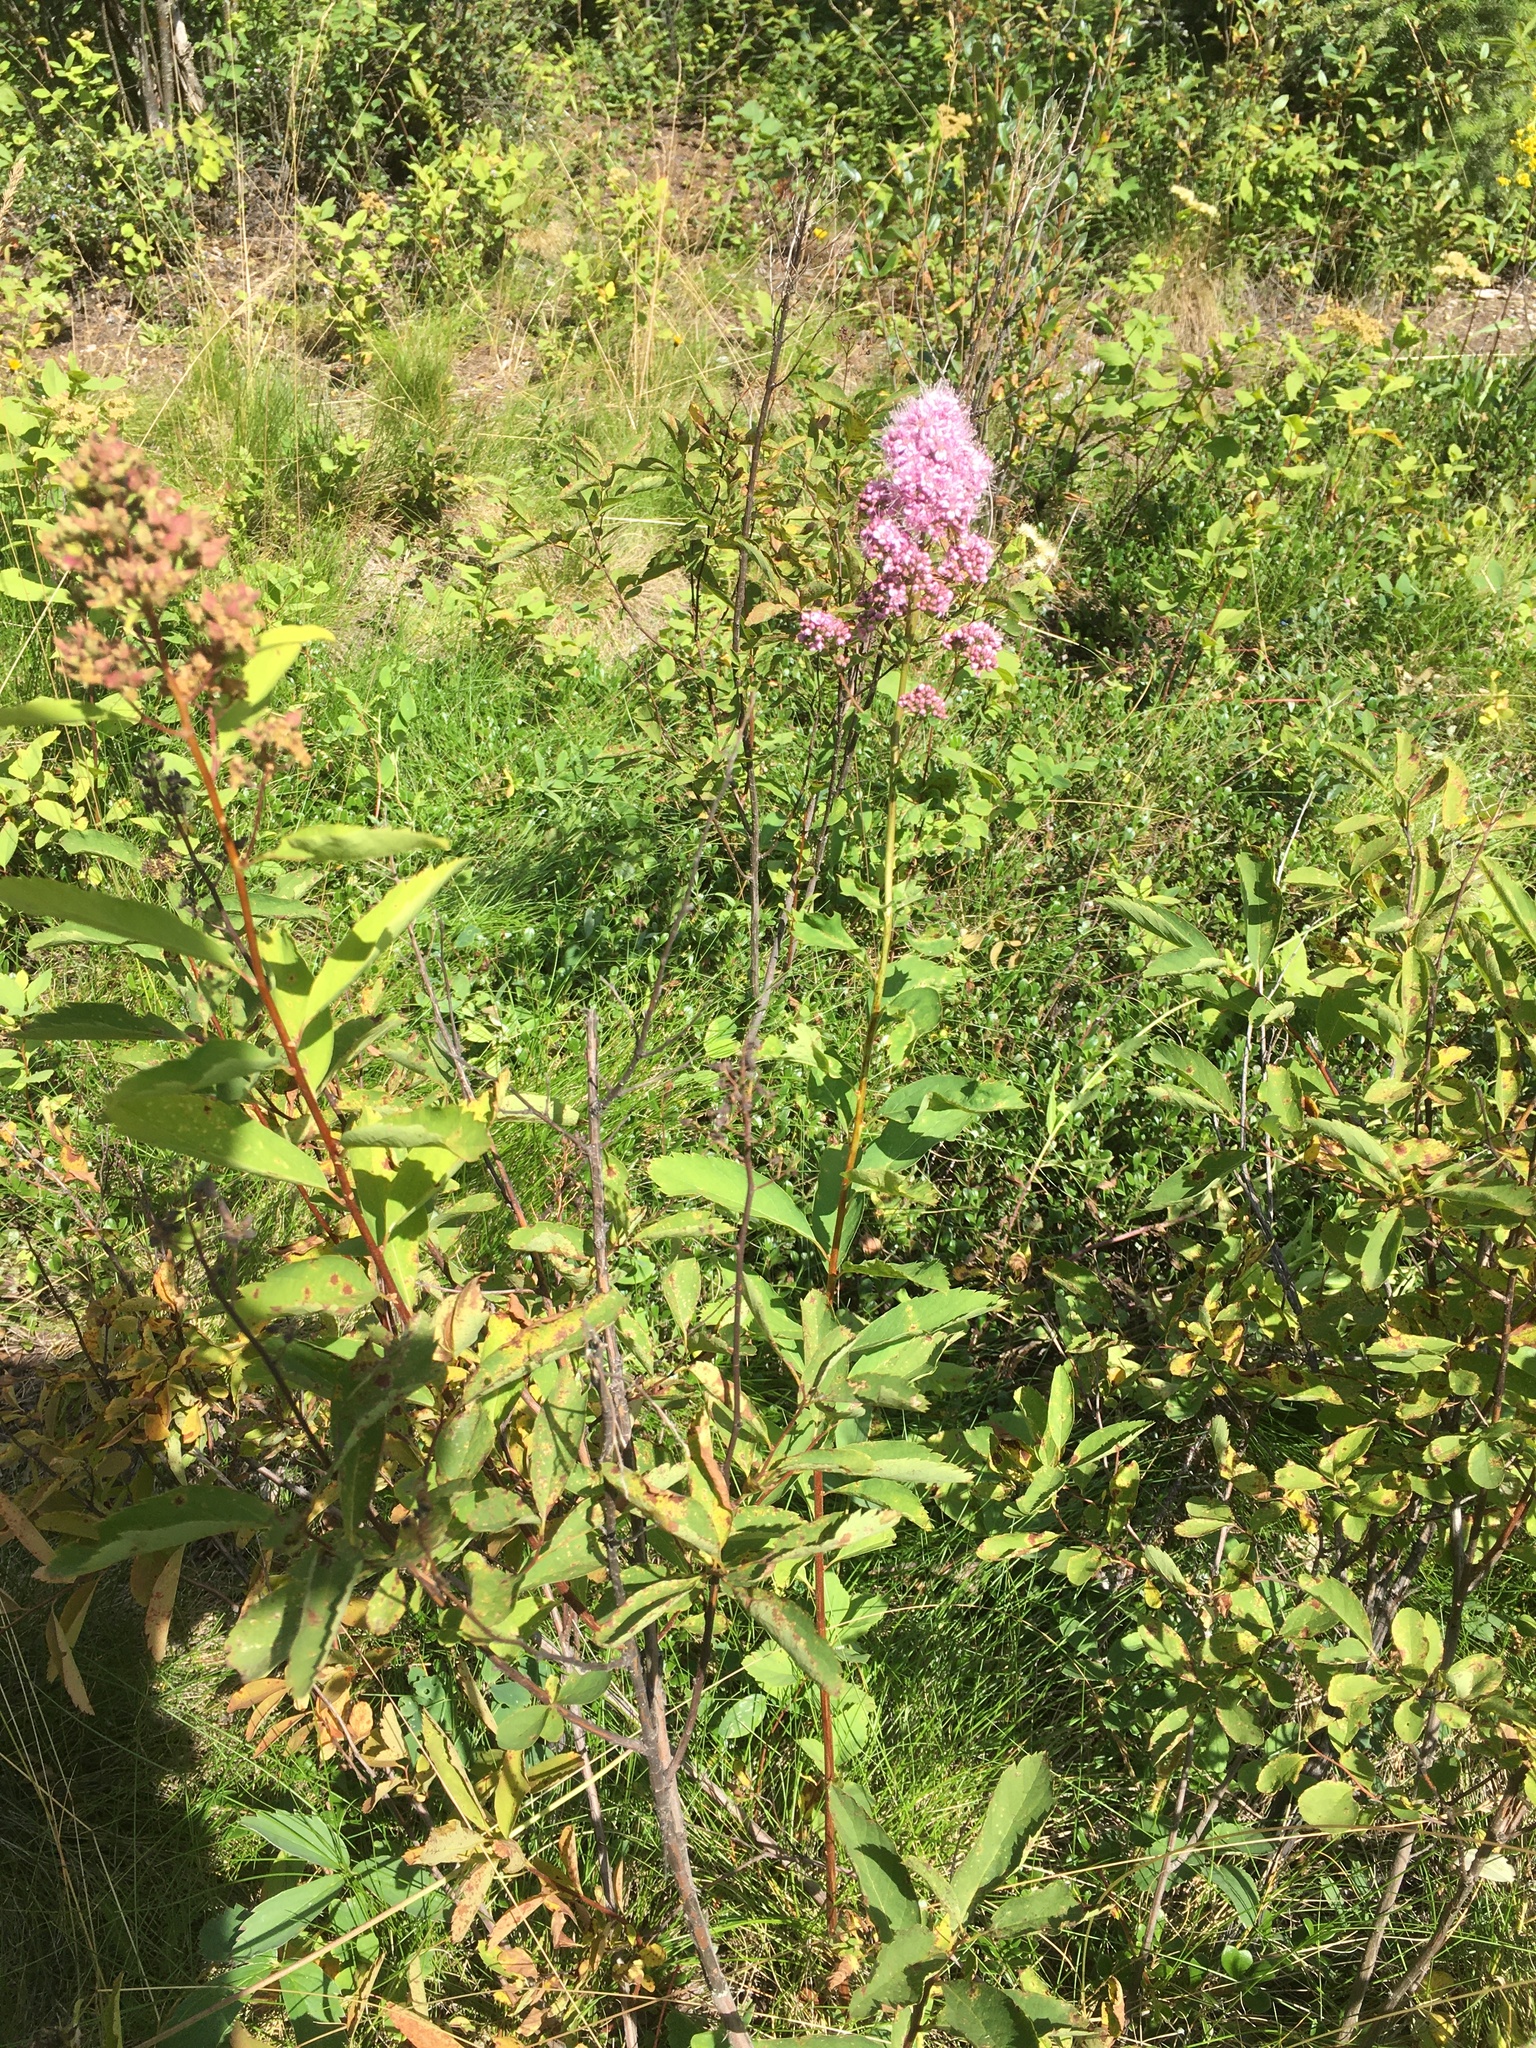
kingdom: Plantae
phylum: Tracheophyta
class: Magnoliopsida
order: Rosales
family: Rosaceae
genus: Spiraea
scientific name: Spiraea douglasii
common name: Steeplebush
